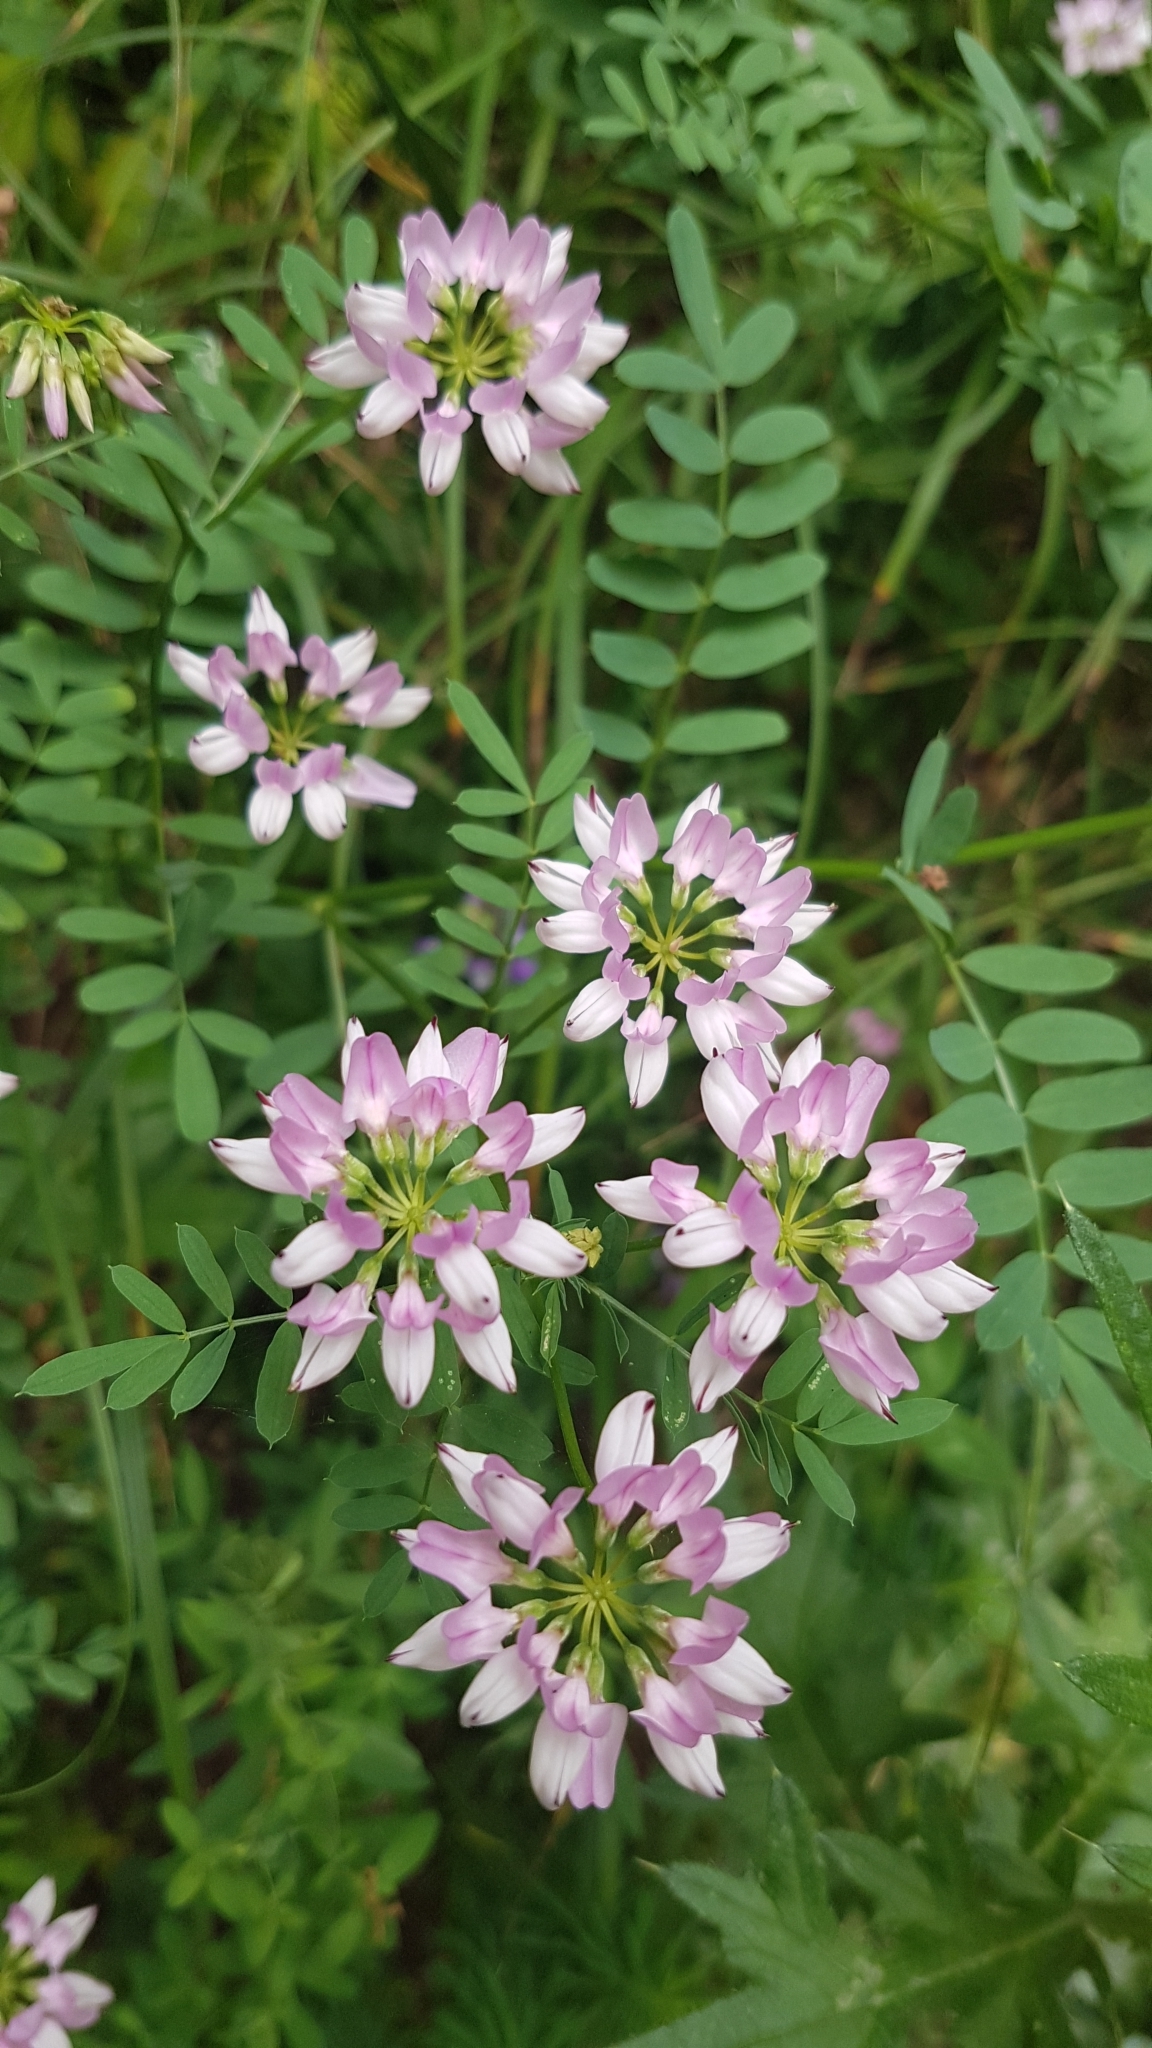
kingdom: Plantae
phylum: Tracheophyta
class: Magnoliopsida
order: Fabales
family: Fabaceae
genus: Coronilla
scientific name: Coronilla varia
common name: Crownvetch
